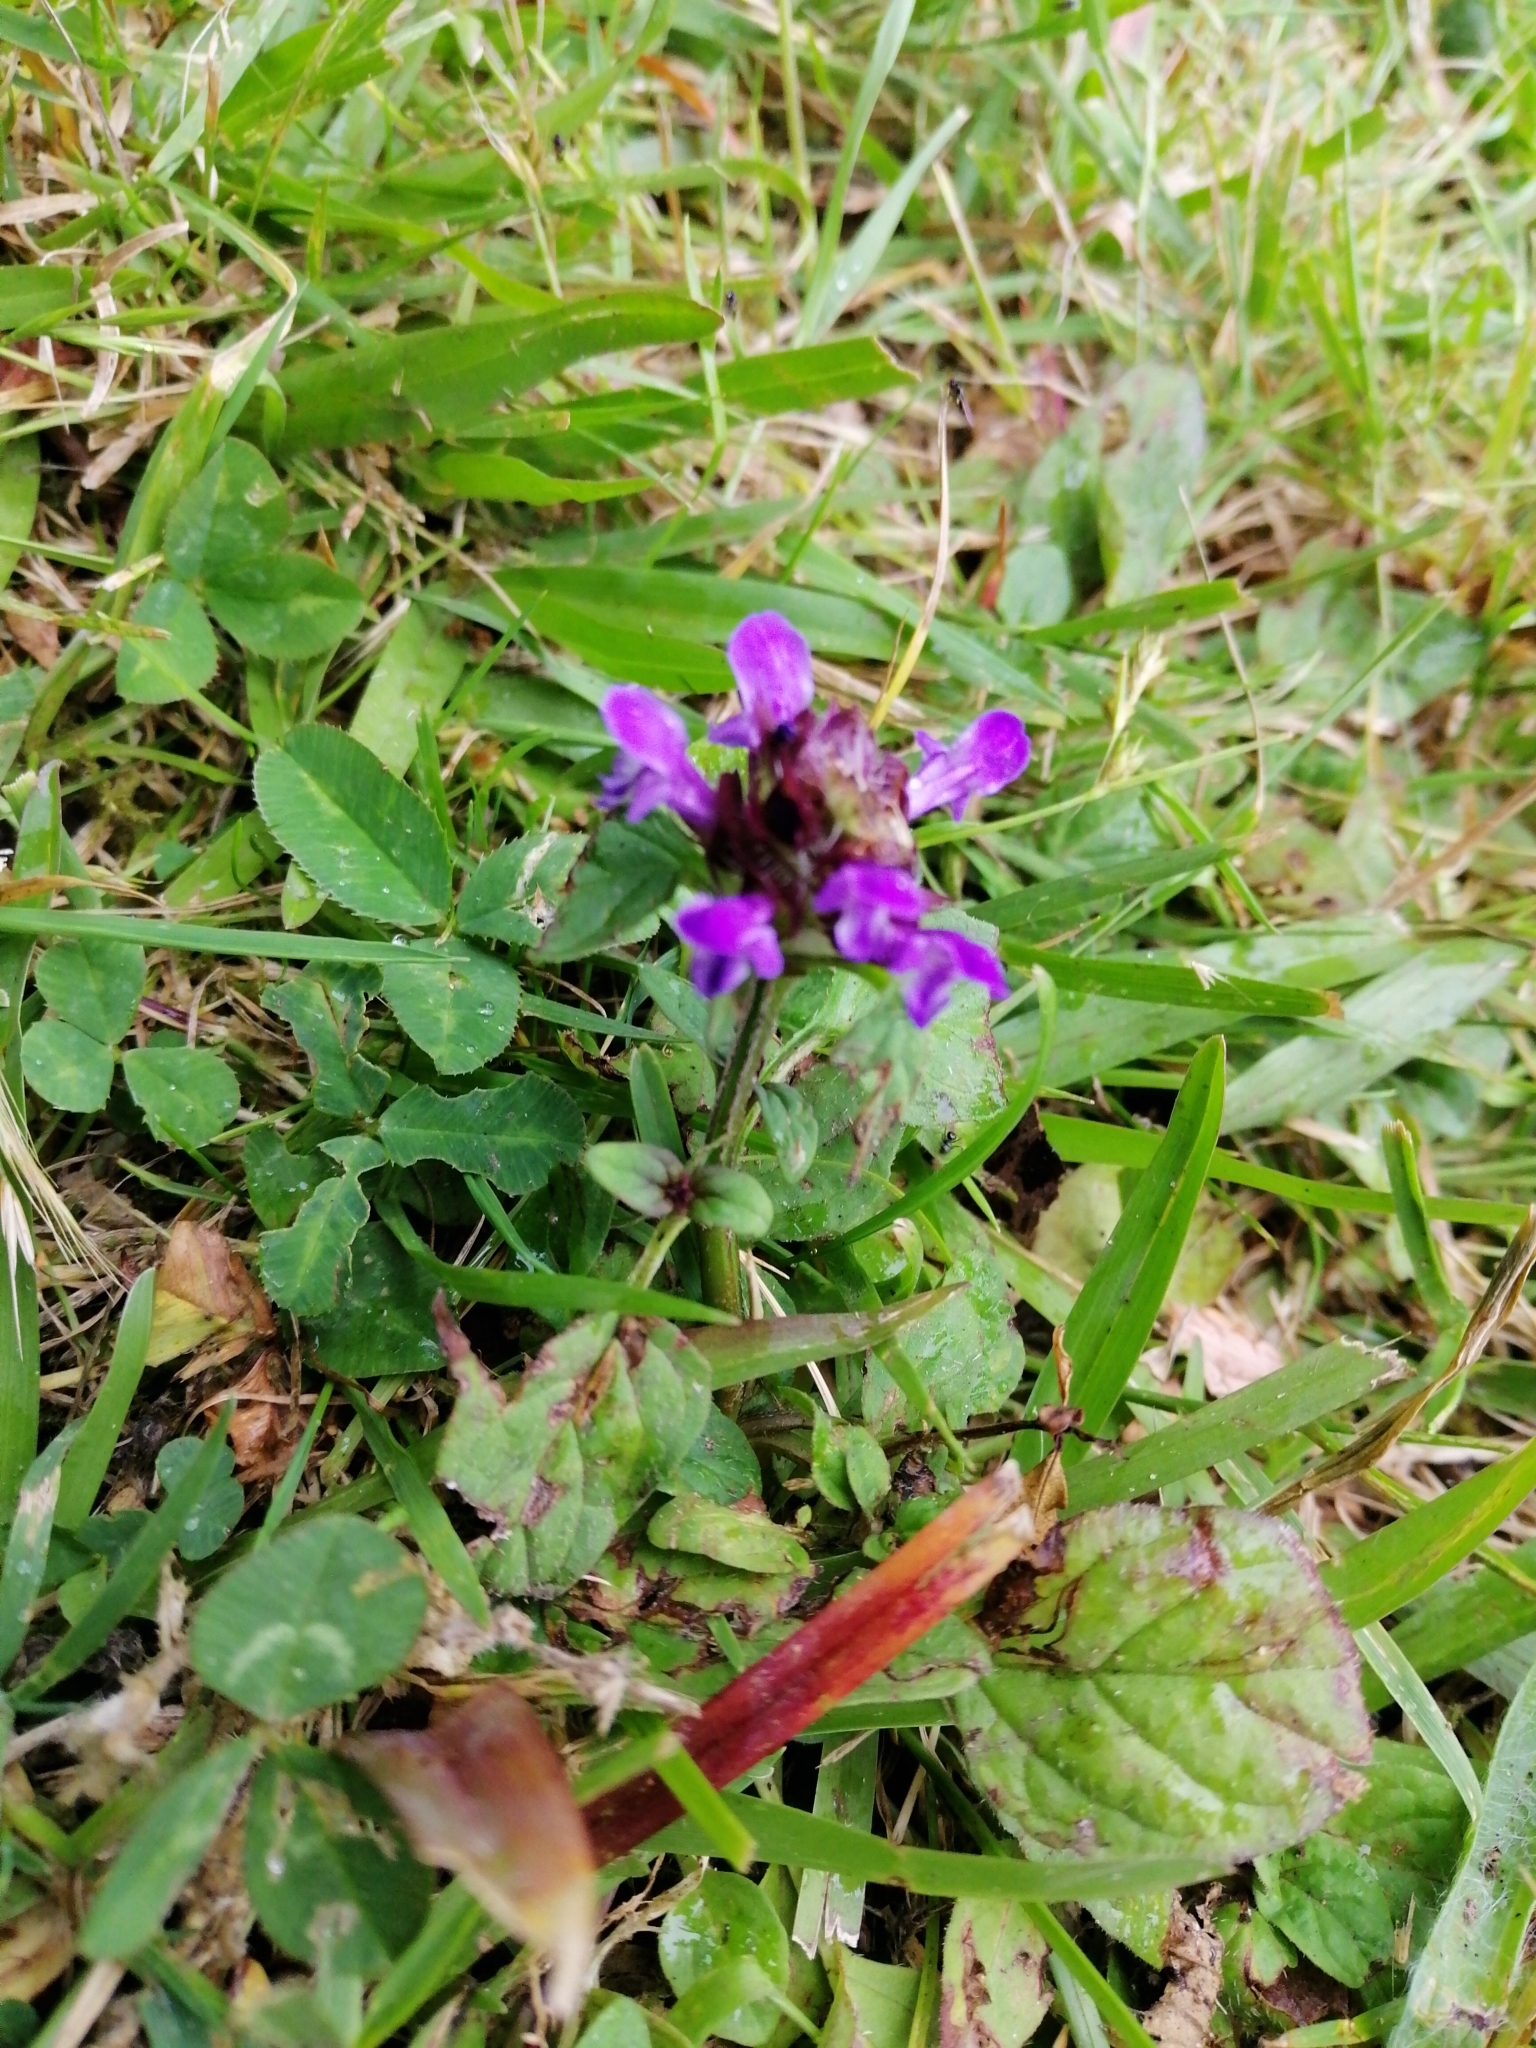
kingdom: Plantae
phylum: Tracheophyta
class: Magnoliopsida
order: Lamiales
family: Lamiaceae
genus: Prunella
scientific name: Prunella vulgaris
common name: Heal-all
